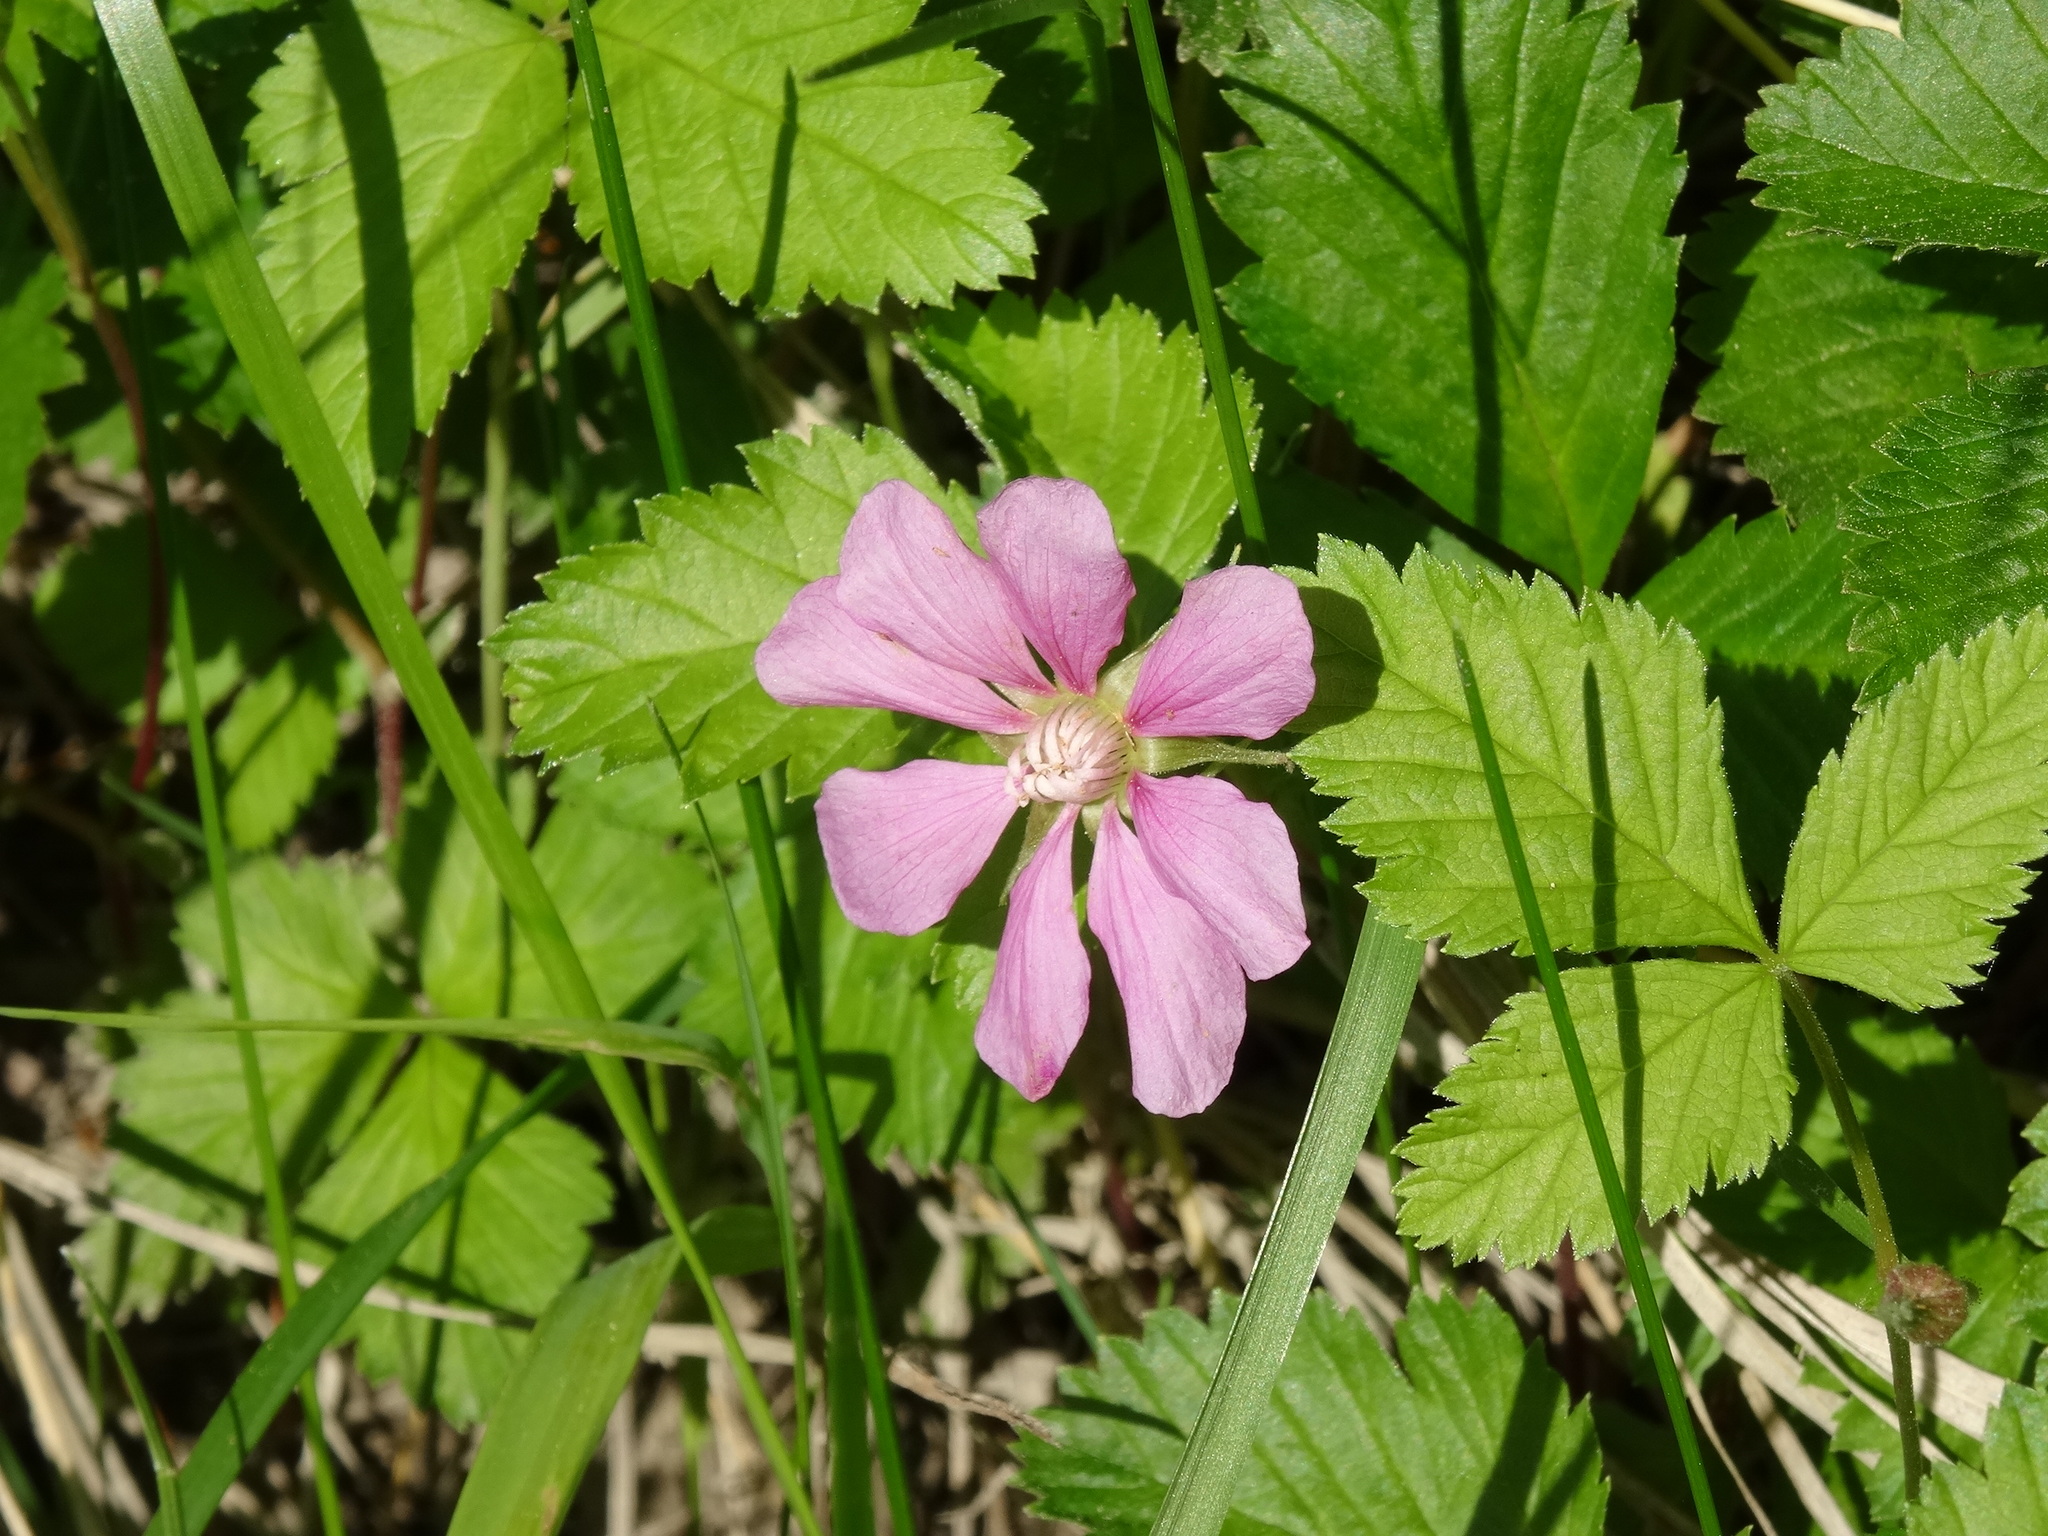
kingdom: Plantae
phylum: Tracheophyta
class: Magnoliopsida
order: Rosales
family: Rosaceae
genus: Rubus
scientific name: Rubus arcticus
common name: Arctic bramble
